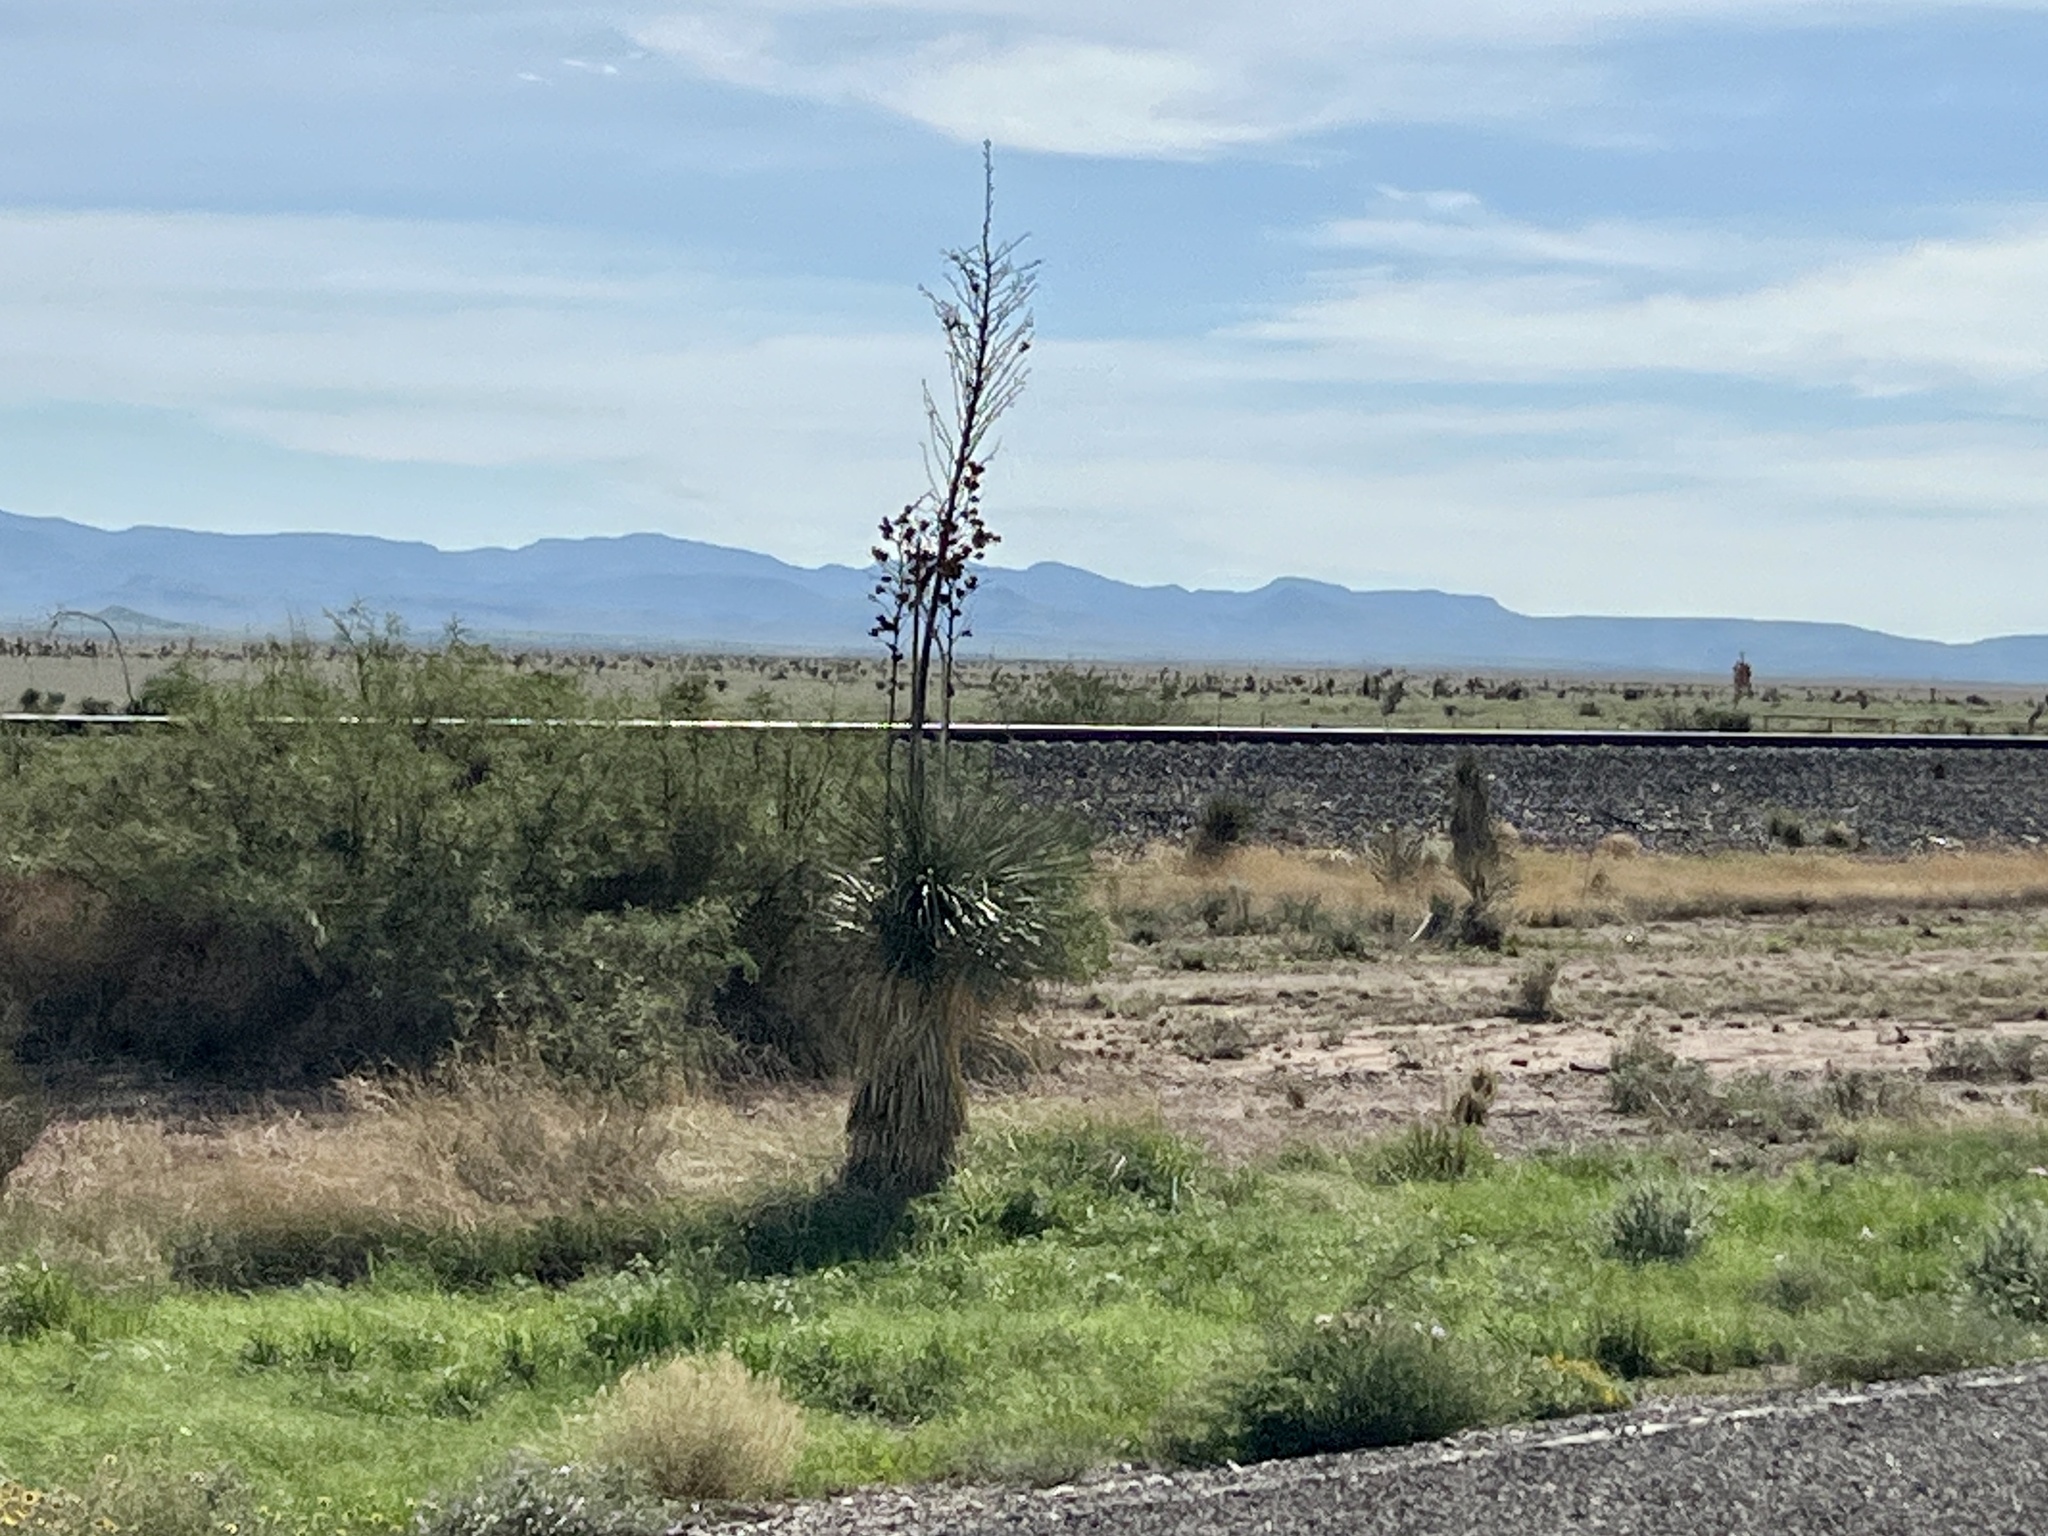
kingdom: Plantae
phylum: Tracheophyta
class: Liliopsida
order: Asparagales
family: Asparagaceae
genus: Yucca
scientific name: Yucca elata
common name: Palmella
